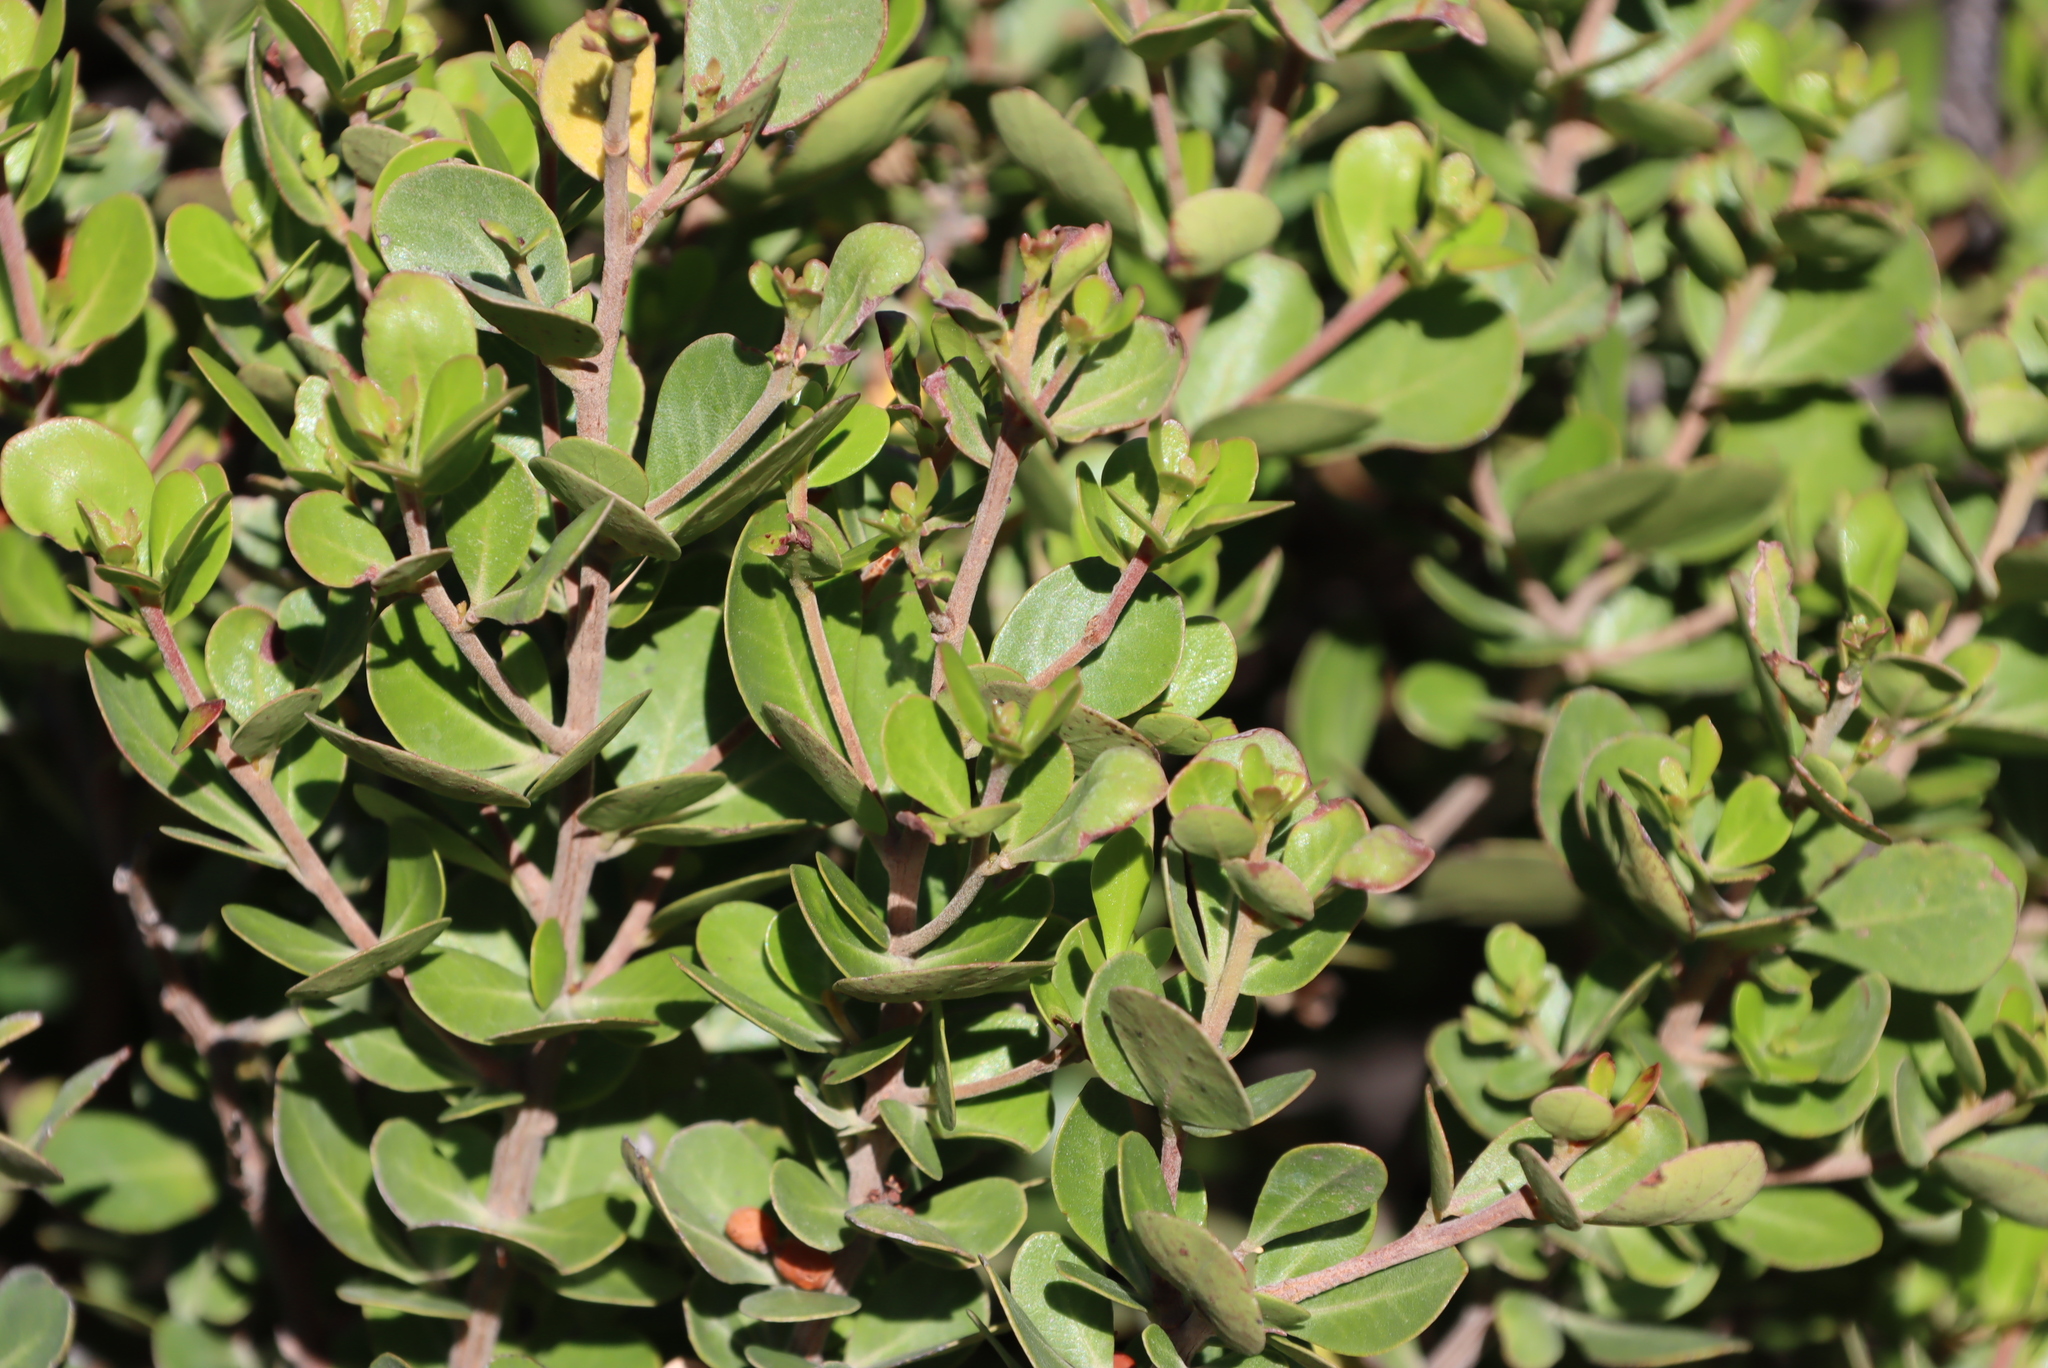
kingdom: Plantae
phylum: Tracheophyta
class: Magnoliopsida
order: Sapindales
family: Anacardiaceae
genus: Searsia
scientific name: Searsia lucida
